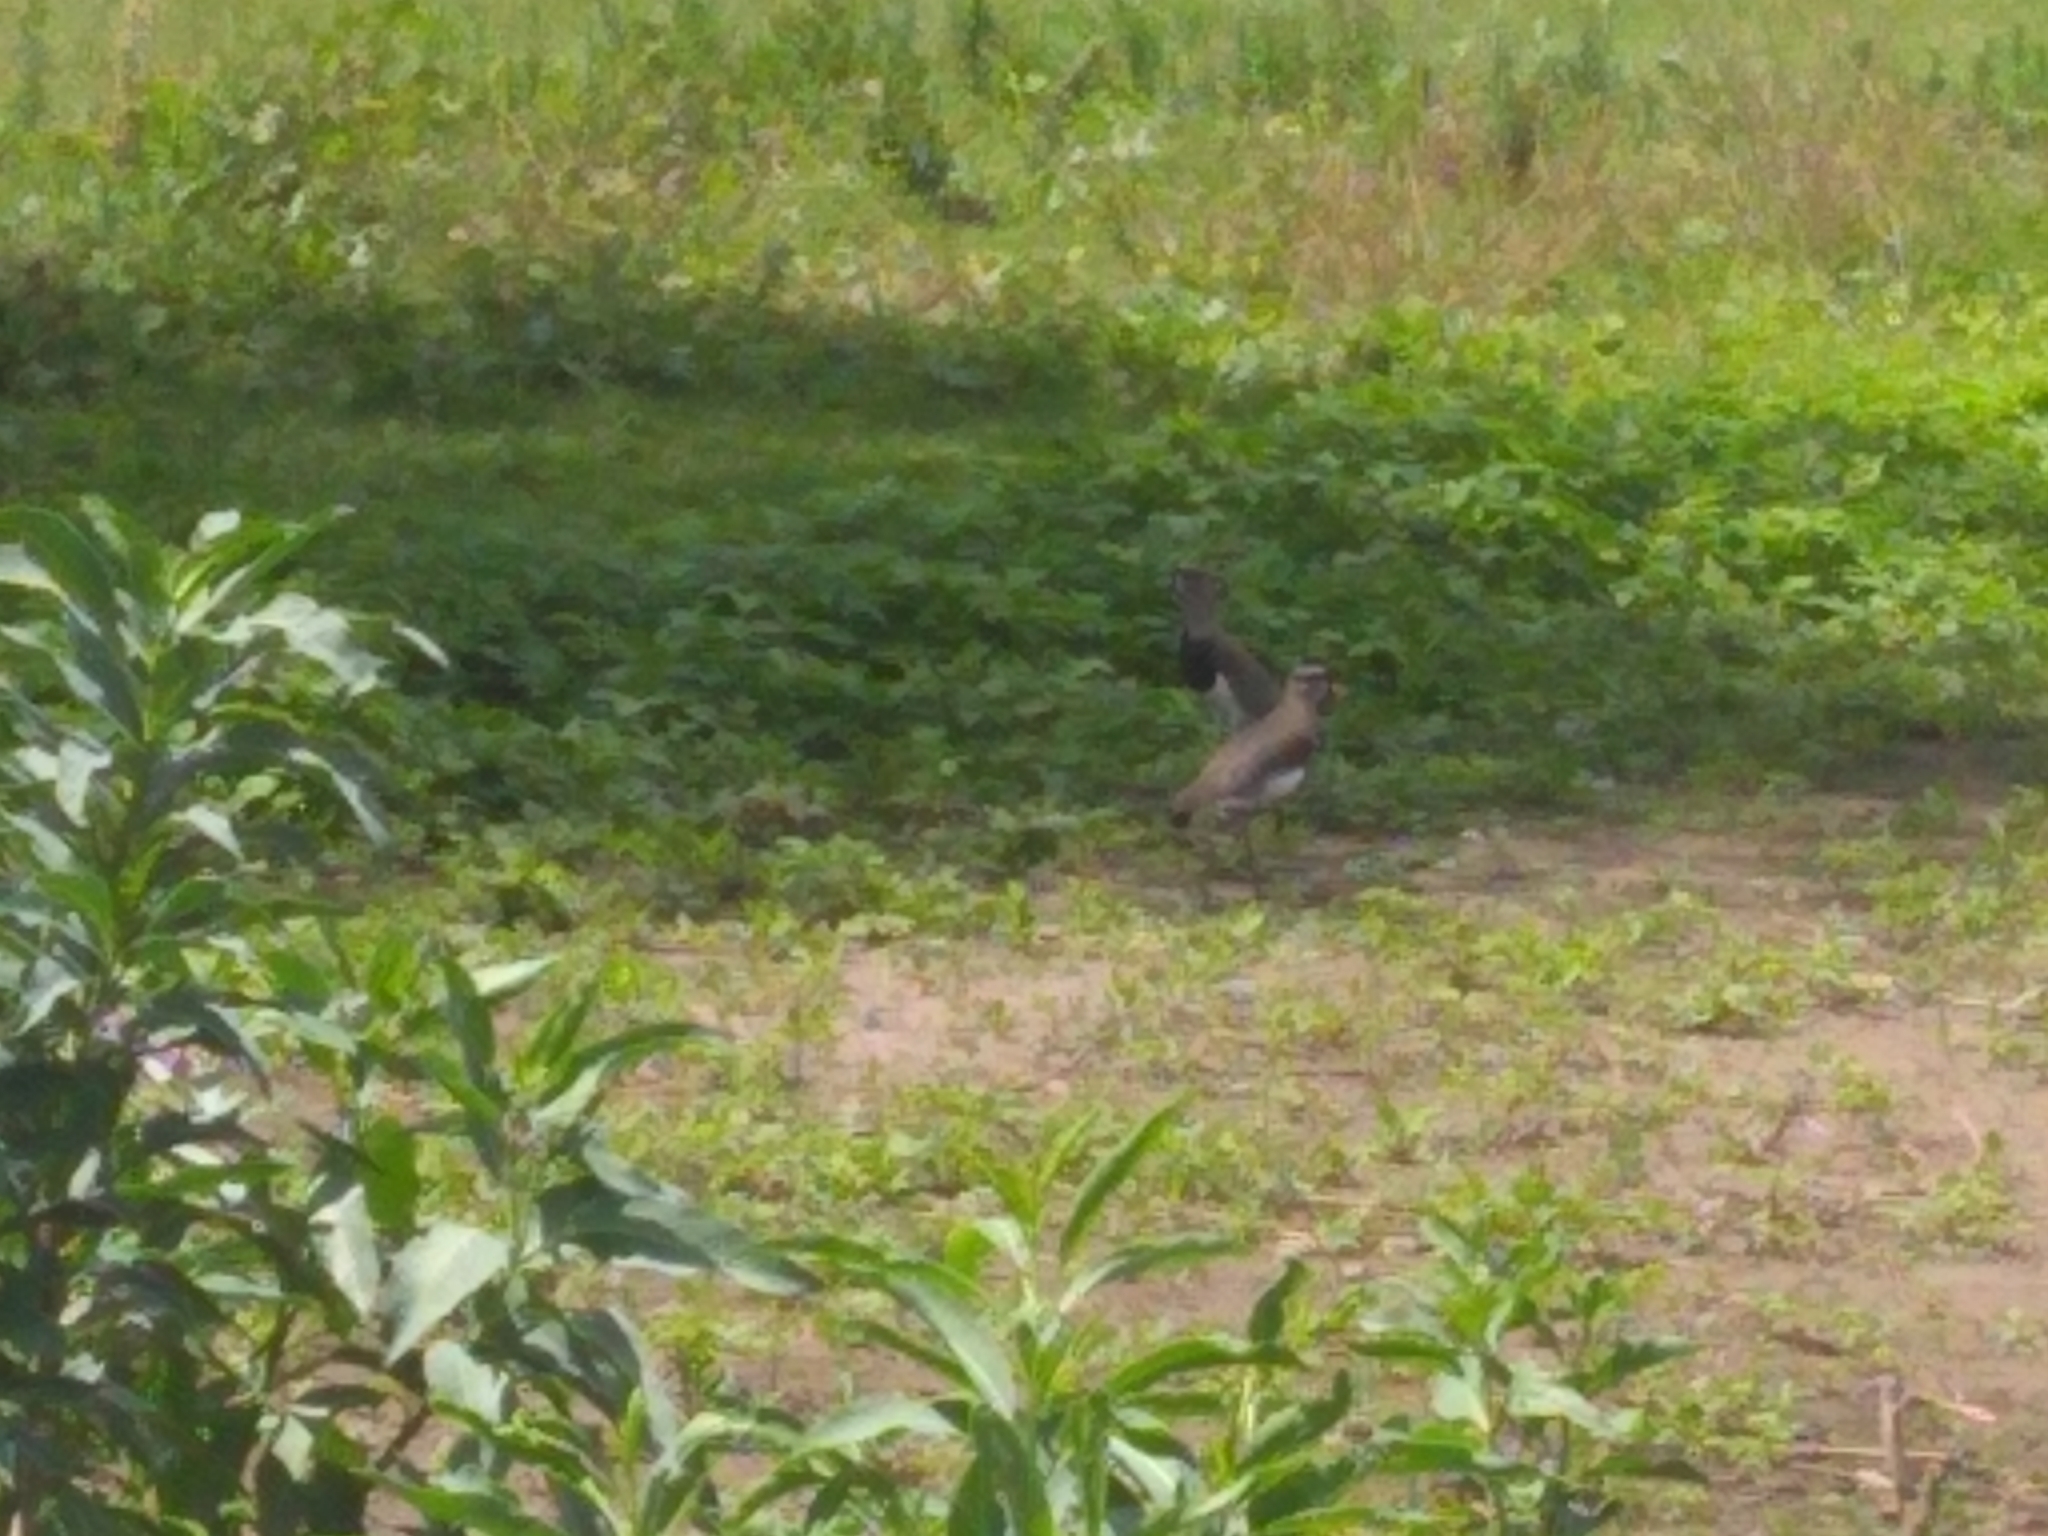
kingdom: Animalia
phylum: Chordata
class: Aves
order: Charadriiformes
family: Charadriidae
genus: Vanellus
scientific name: Vanellus chilensis
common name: Southern lapwing
